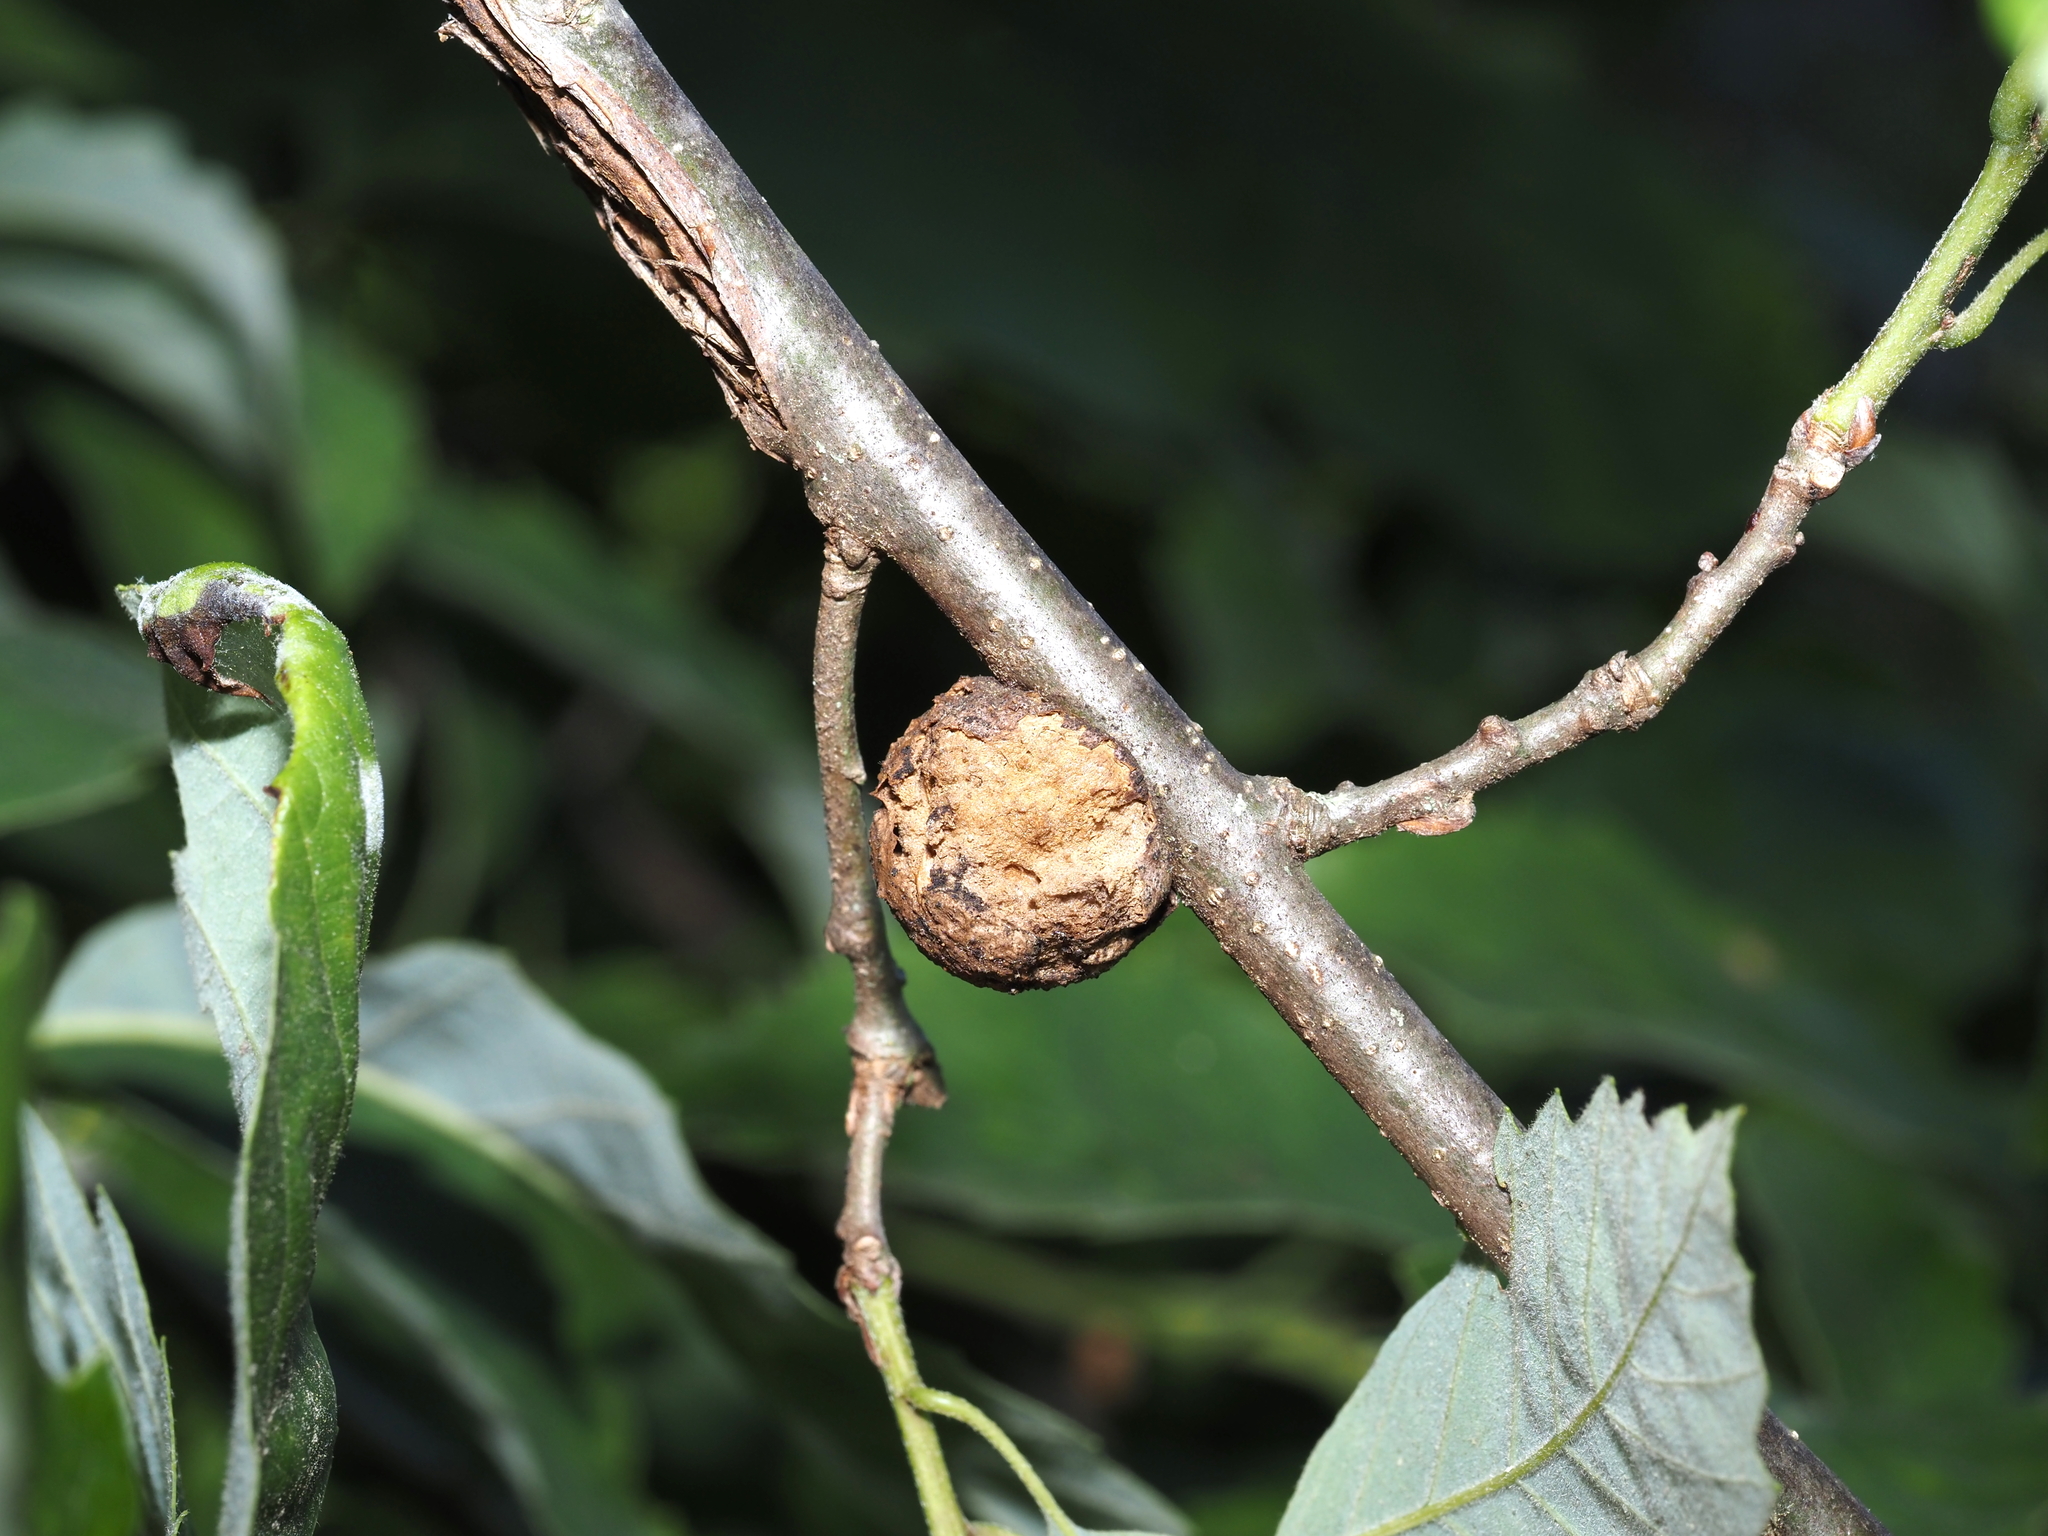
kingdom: Animalia
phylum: Arthropoda
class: Insecta
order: Hymenoptera
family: Cynipidae
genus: Disholcaspis
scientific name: Disholcaspis
